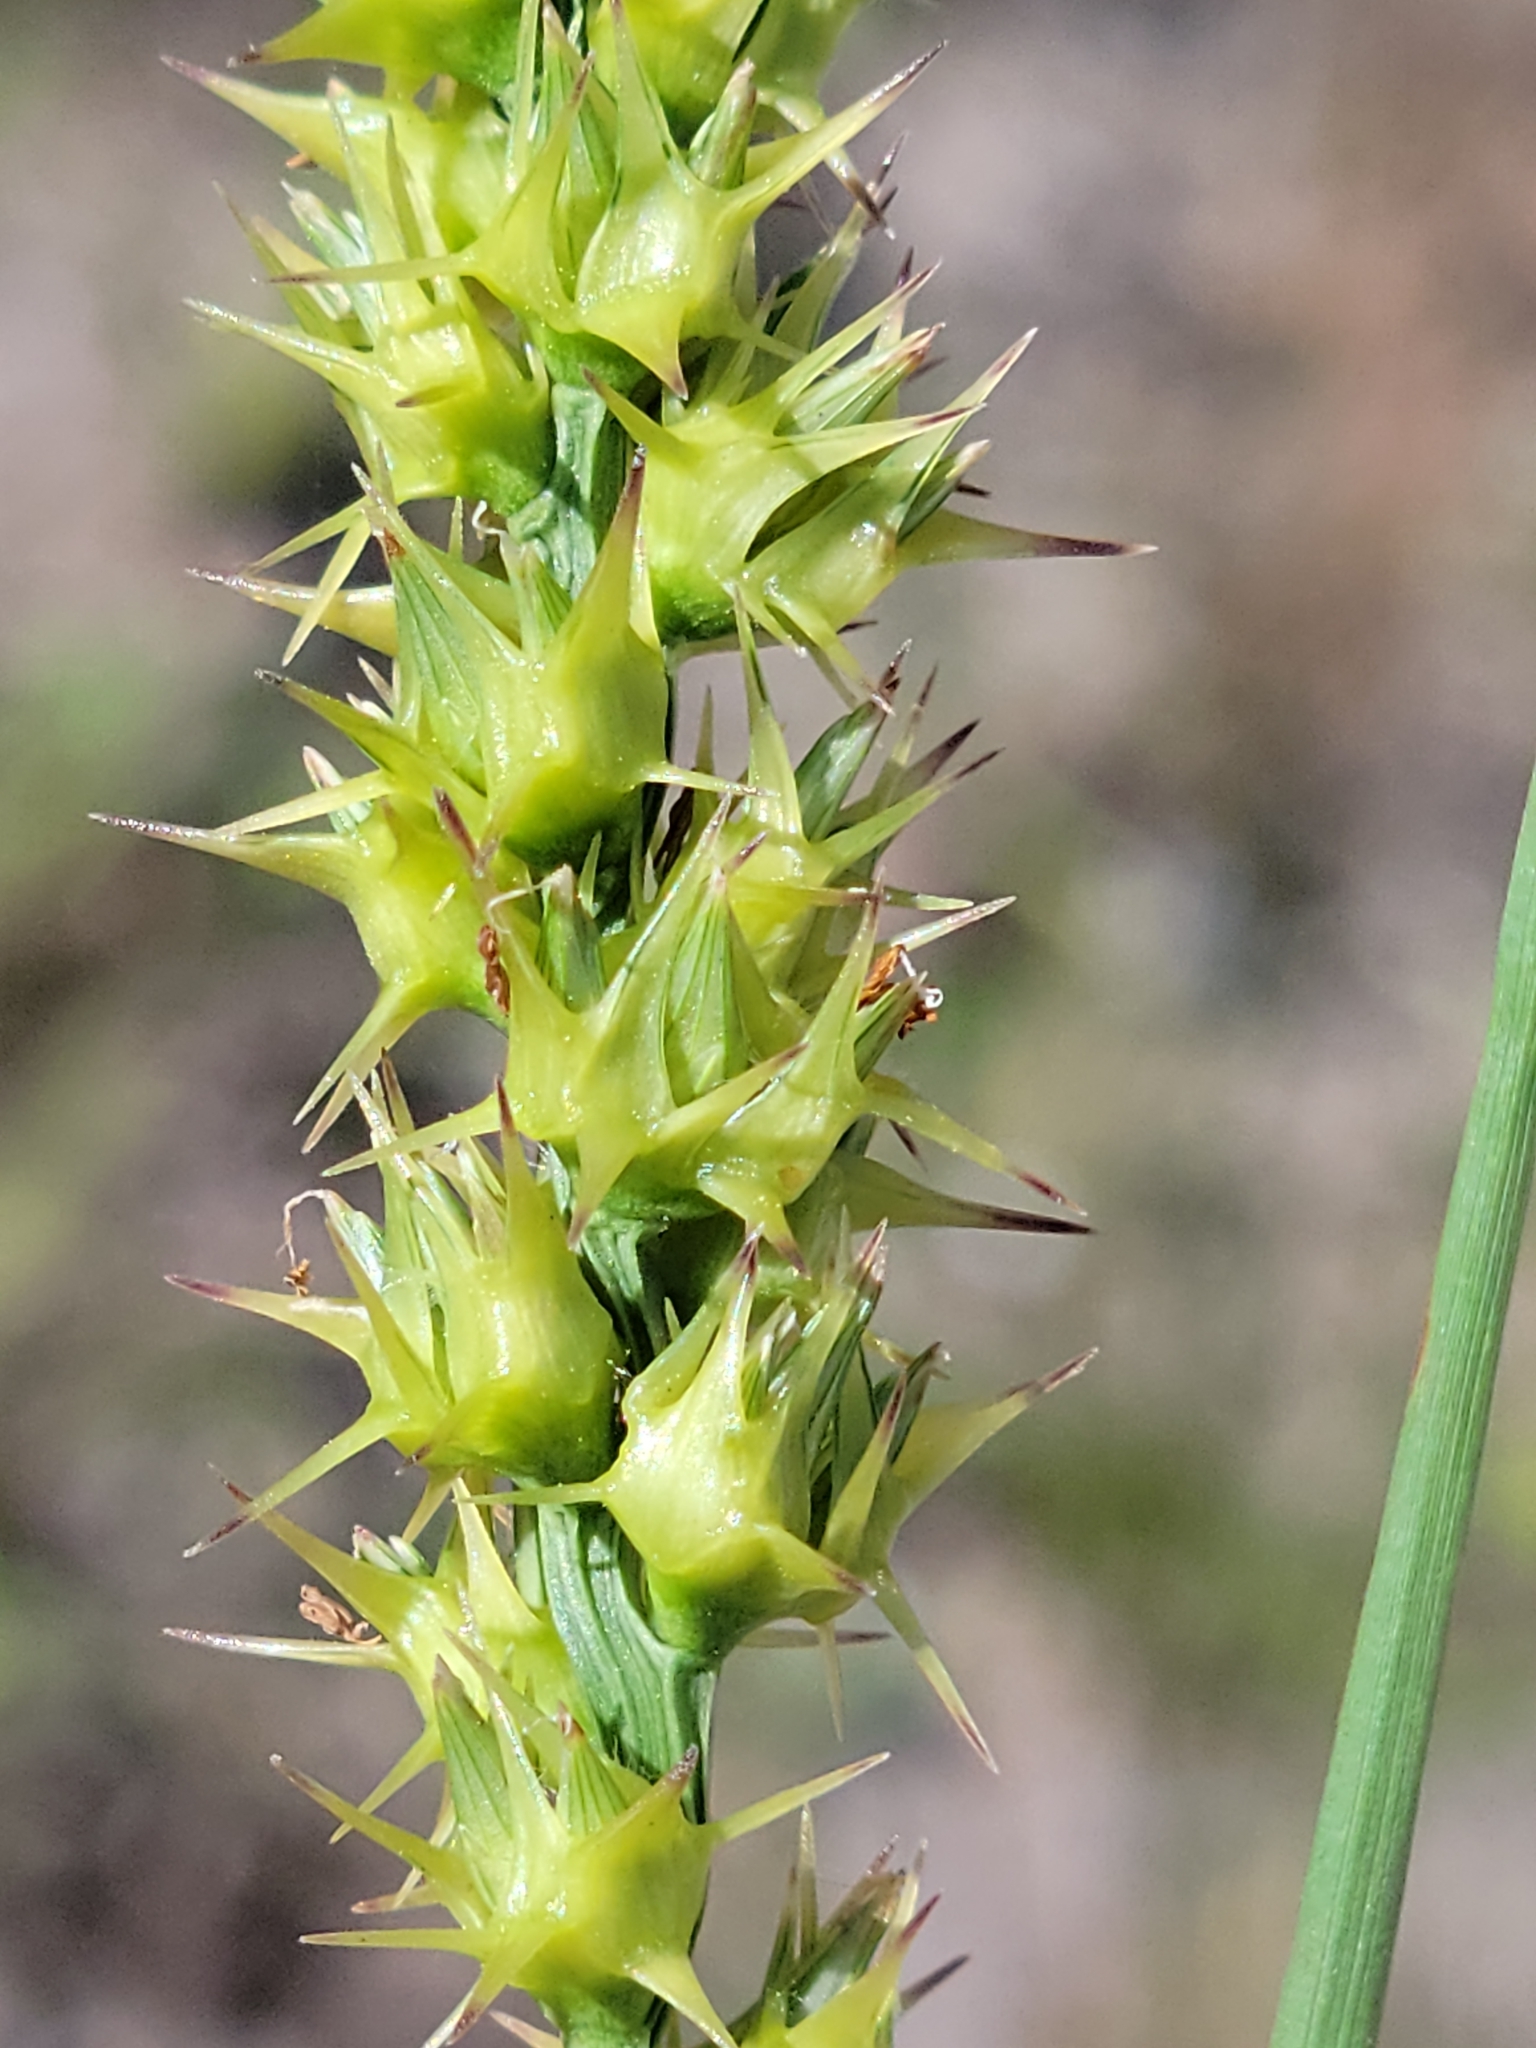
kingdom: Plantae
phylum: Tracheophyta
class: Liliopsida
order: Poales
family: Poaceae
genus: Cenchrus
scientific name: Cenchrus spinifex
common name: Coast sandbur
